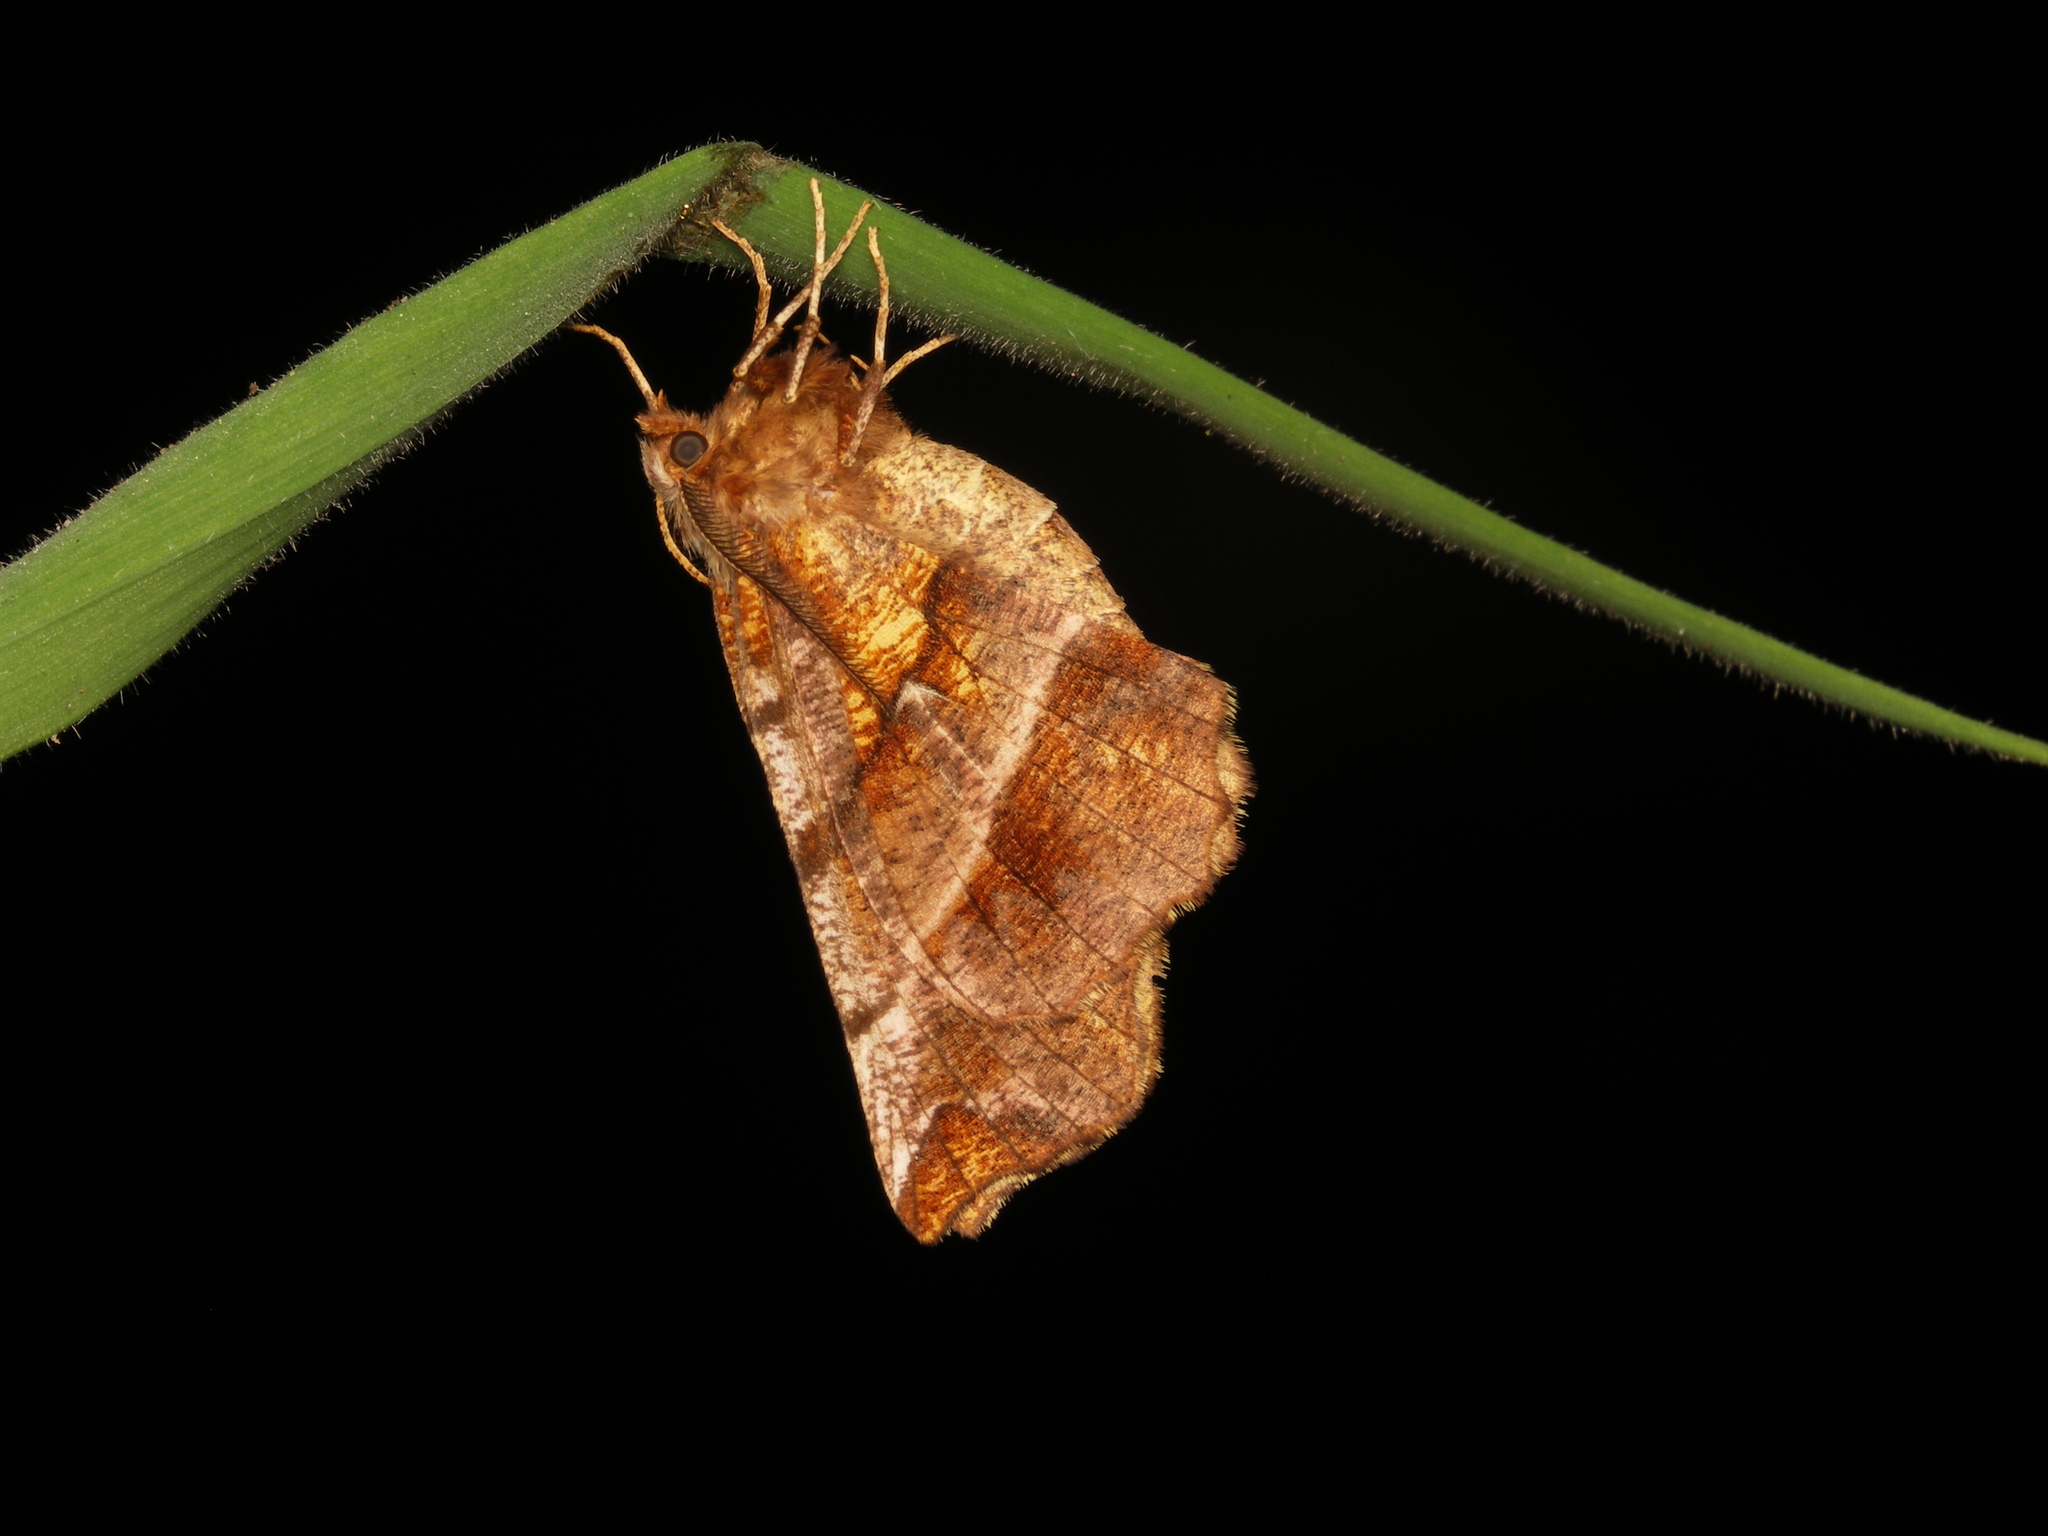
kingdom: Animalia
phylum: Arthropoda
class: Insecta
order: Lepidoptera
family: Geometridae
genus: Selenia
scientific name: Selenia dentaria
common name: Early thorn
